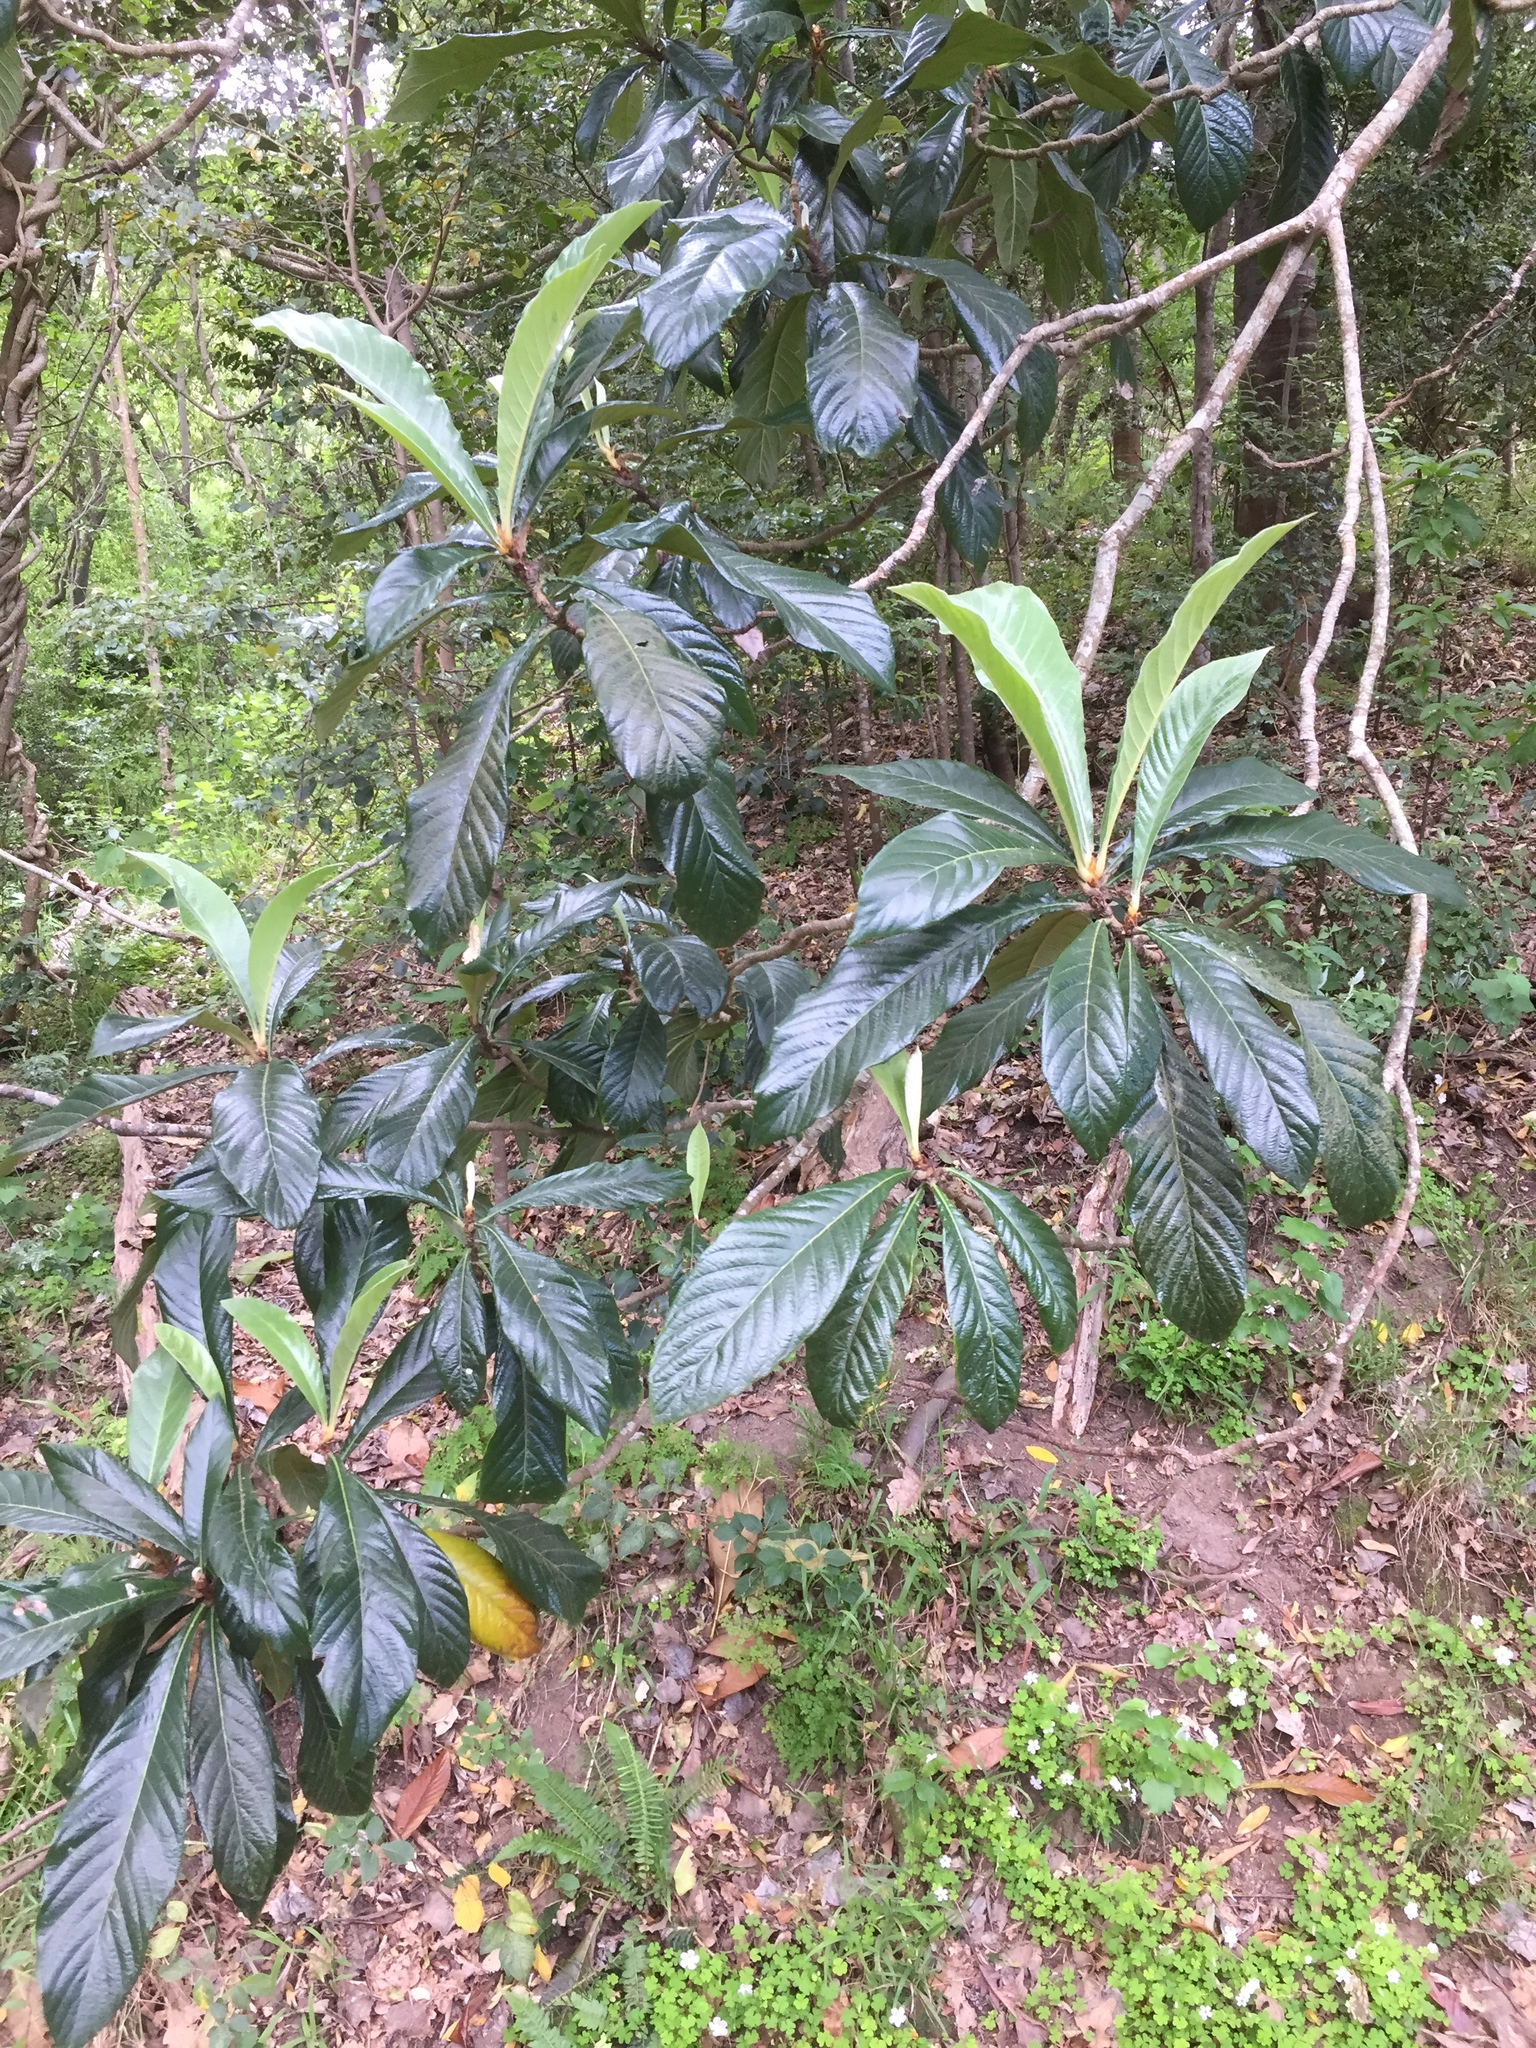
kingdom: Plantae
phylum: Tracheophyta
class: Magnoliopsida
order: Rosales
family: Rosaceae
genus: Rhaphiolepis
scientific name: Rhaphiolepis bibas
